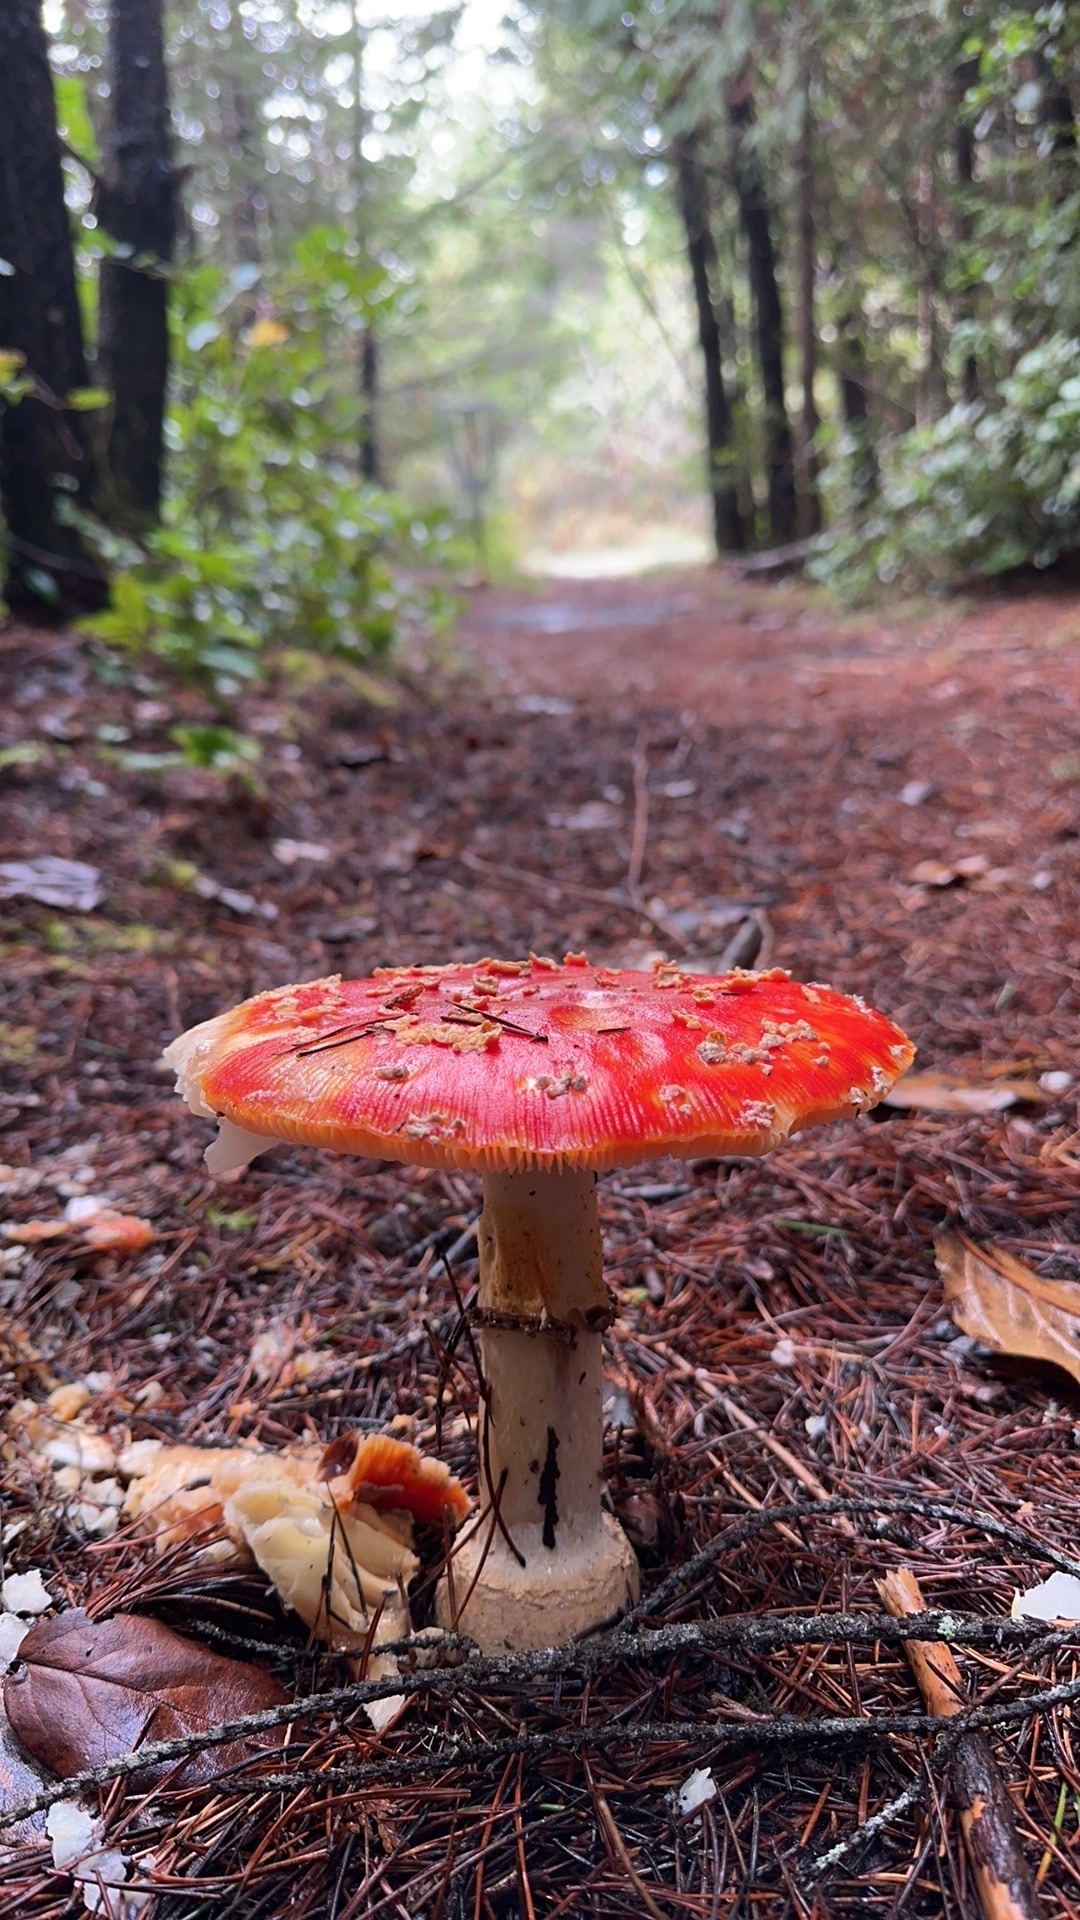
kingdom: Fungi
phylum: Basidiomycota
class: Agaricomycetes
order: Agaricales
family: Amanitaceae
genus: Amanita
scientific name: Amanita muscaria
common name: Fly agaric
